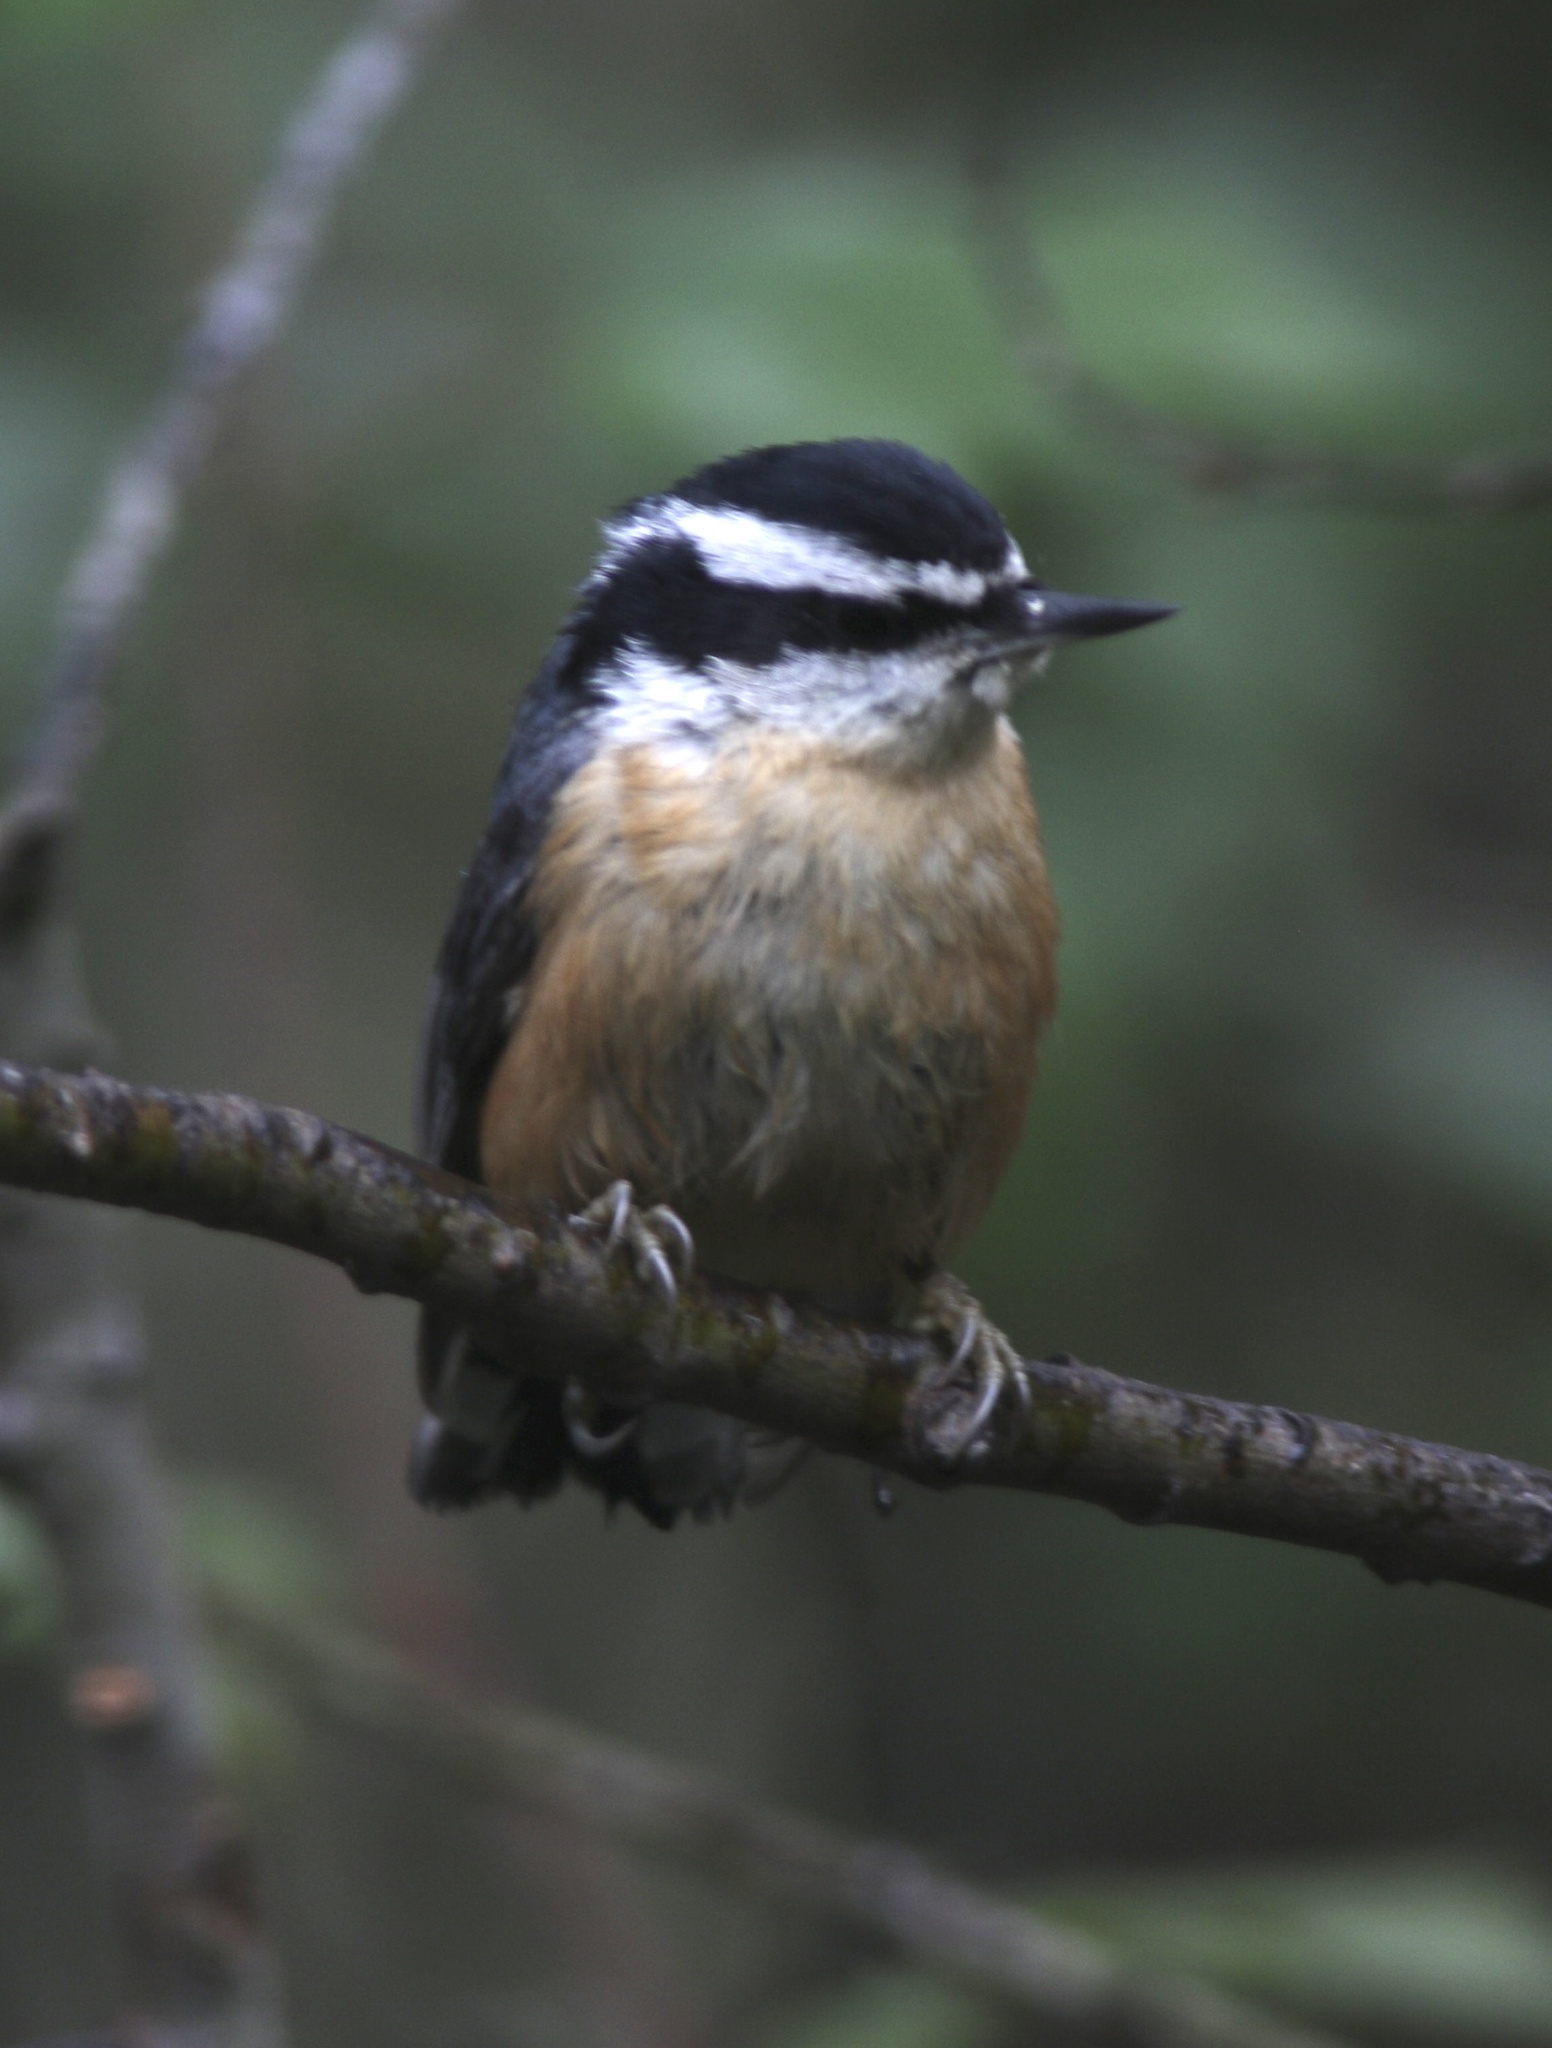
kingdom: Animalia
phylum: Chordata
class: Aves
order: Passeriformes
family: Sittidae
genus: Sitta
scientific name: Sitta canadensis
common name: Red-breasted nuthatch
